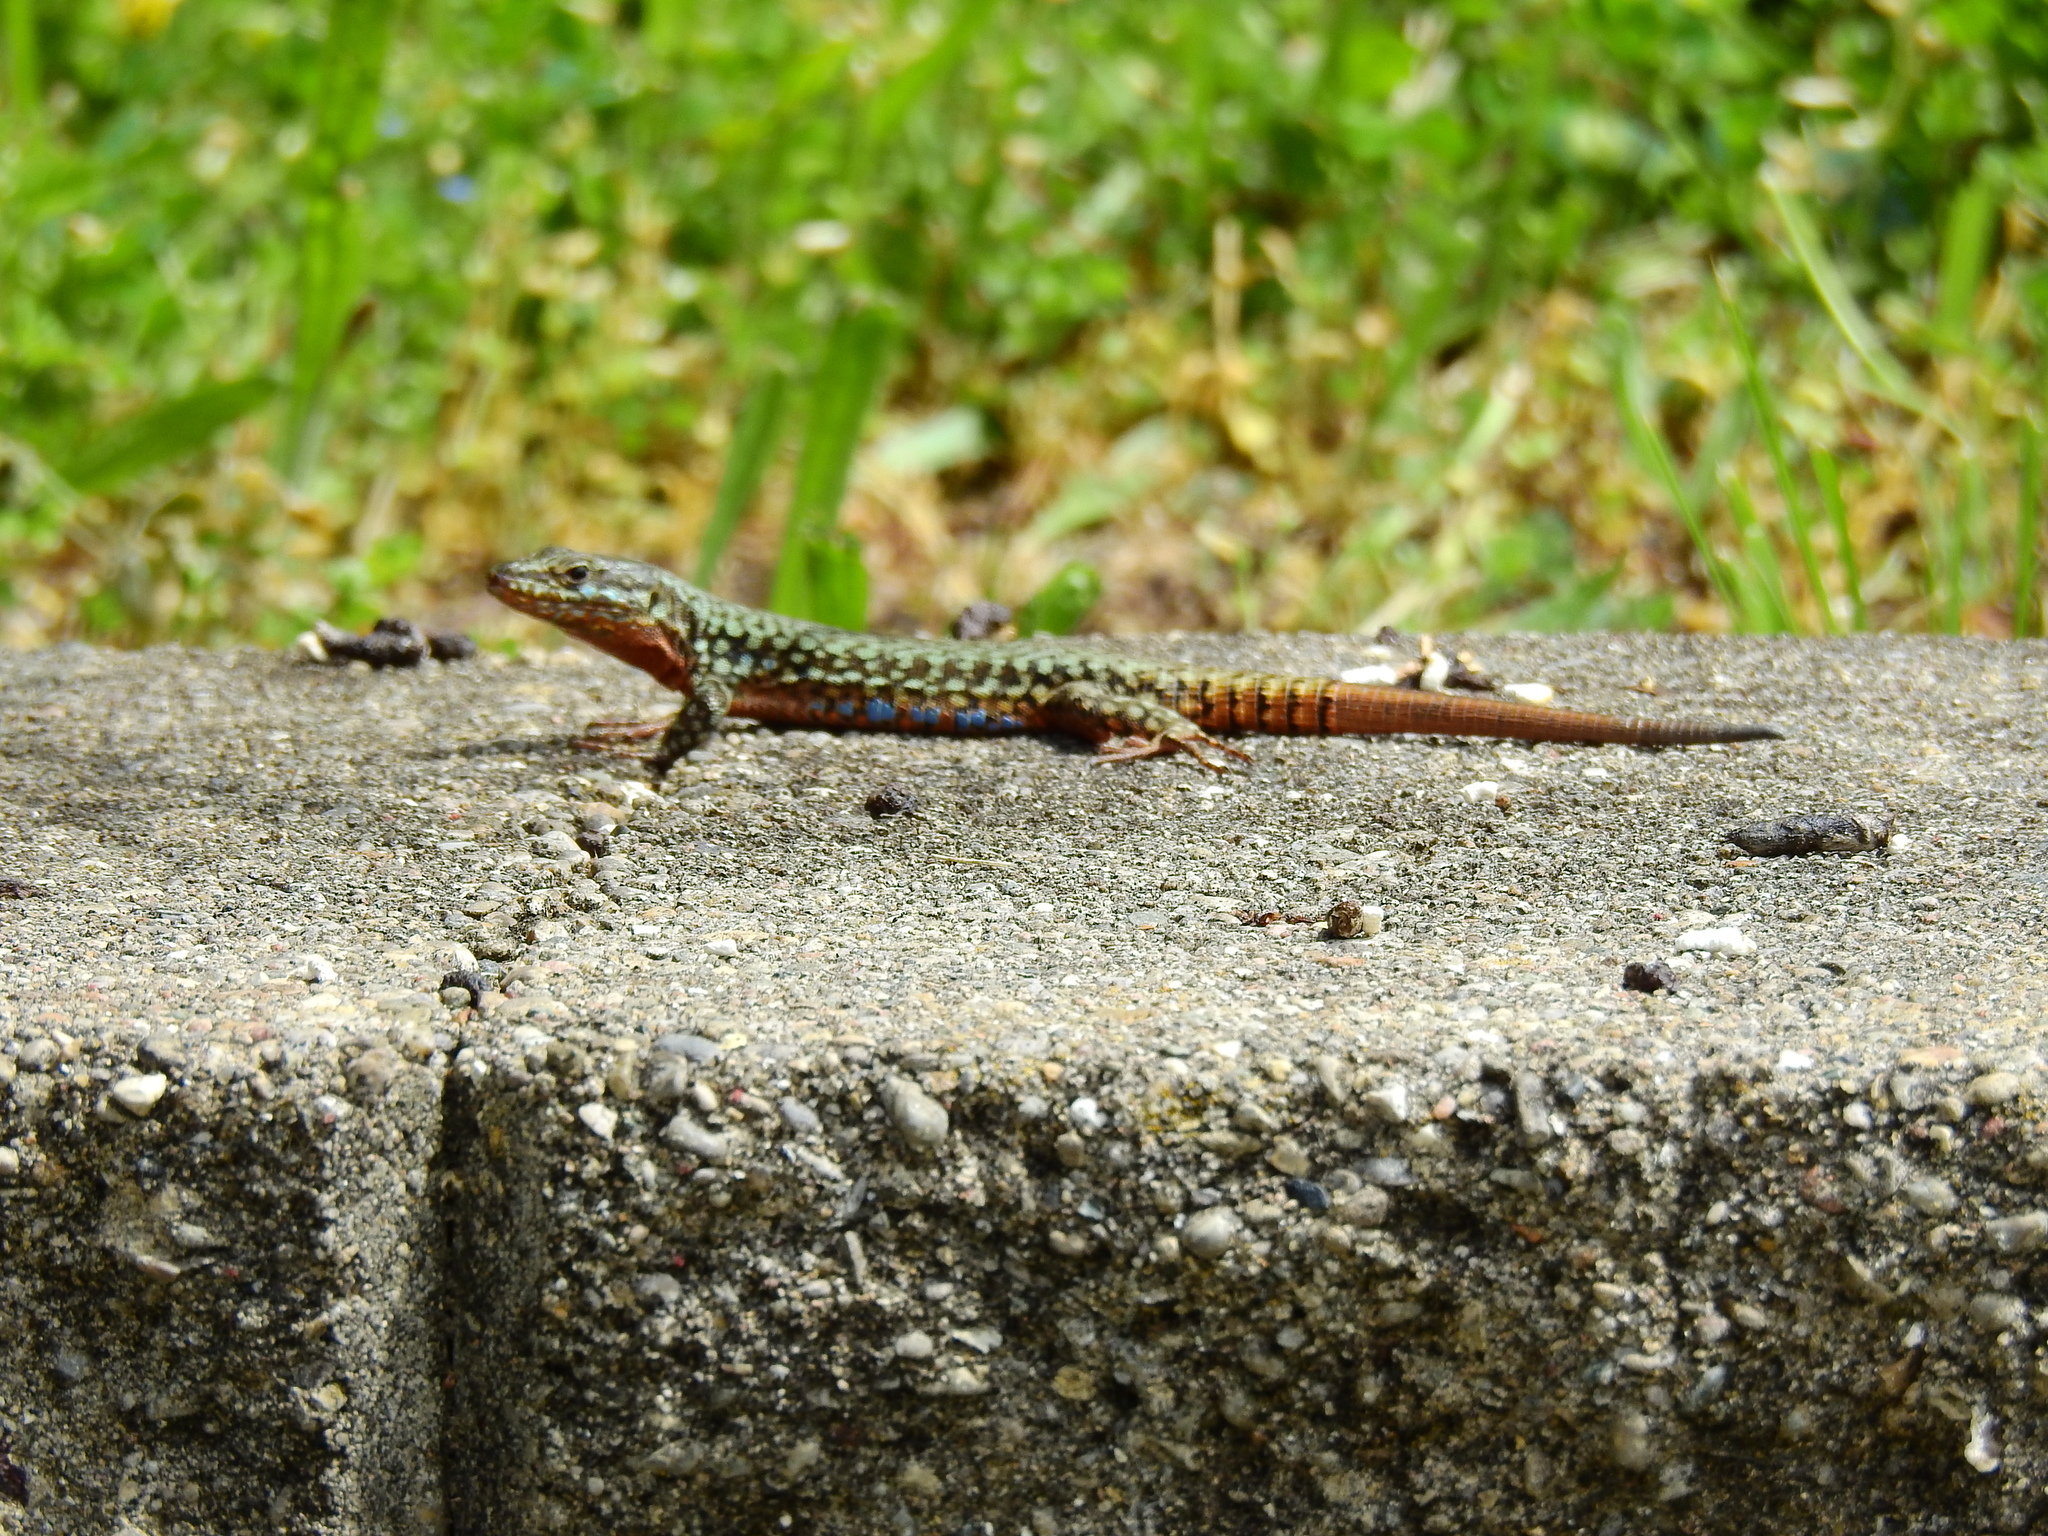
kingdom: Animalia
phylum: Chordata
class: Squamata
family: Lacertidae
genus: Podarcis
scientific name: Podarcis muralis
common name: Common wall lizard
